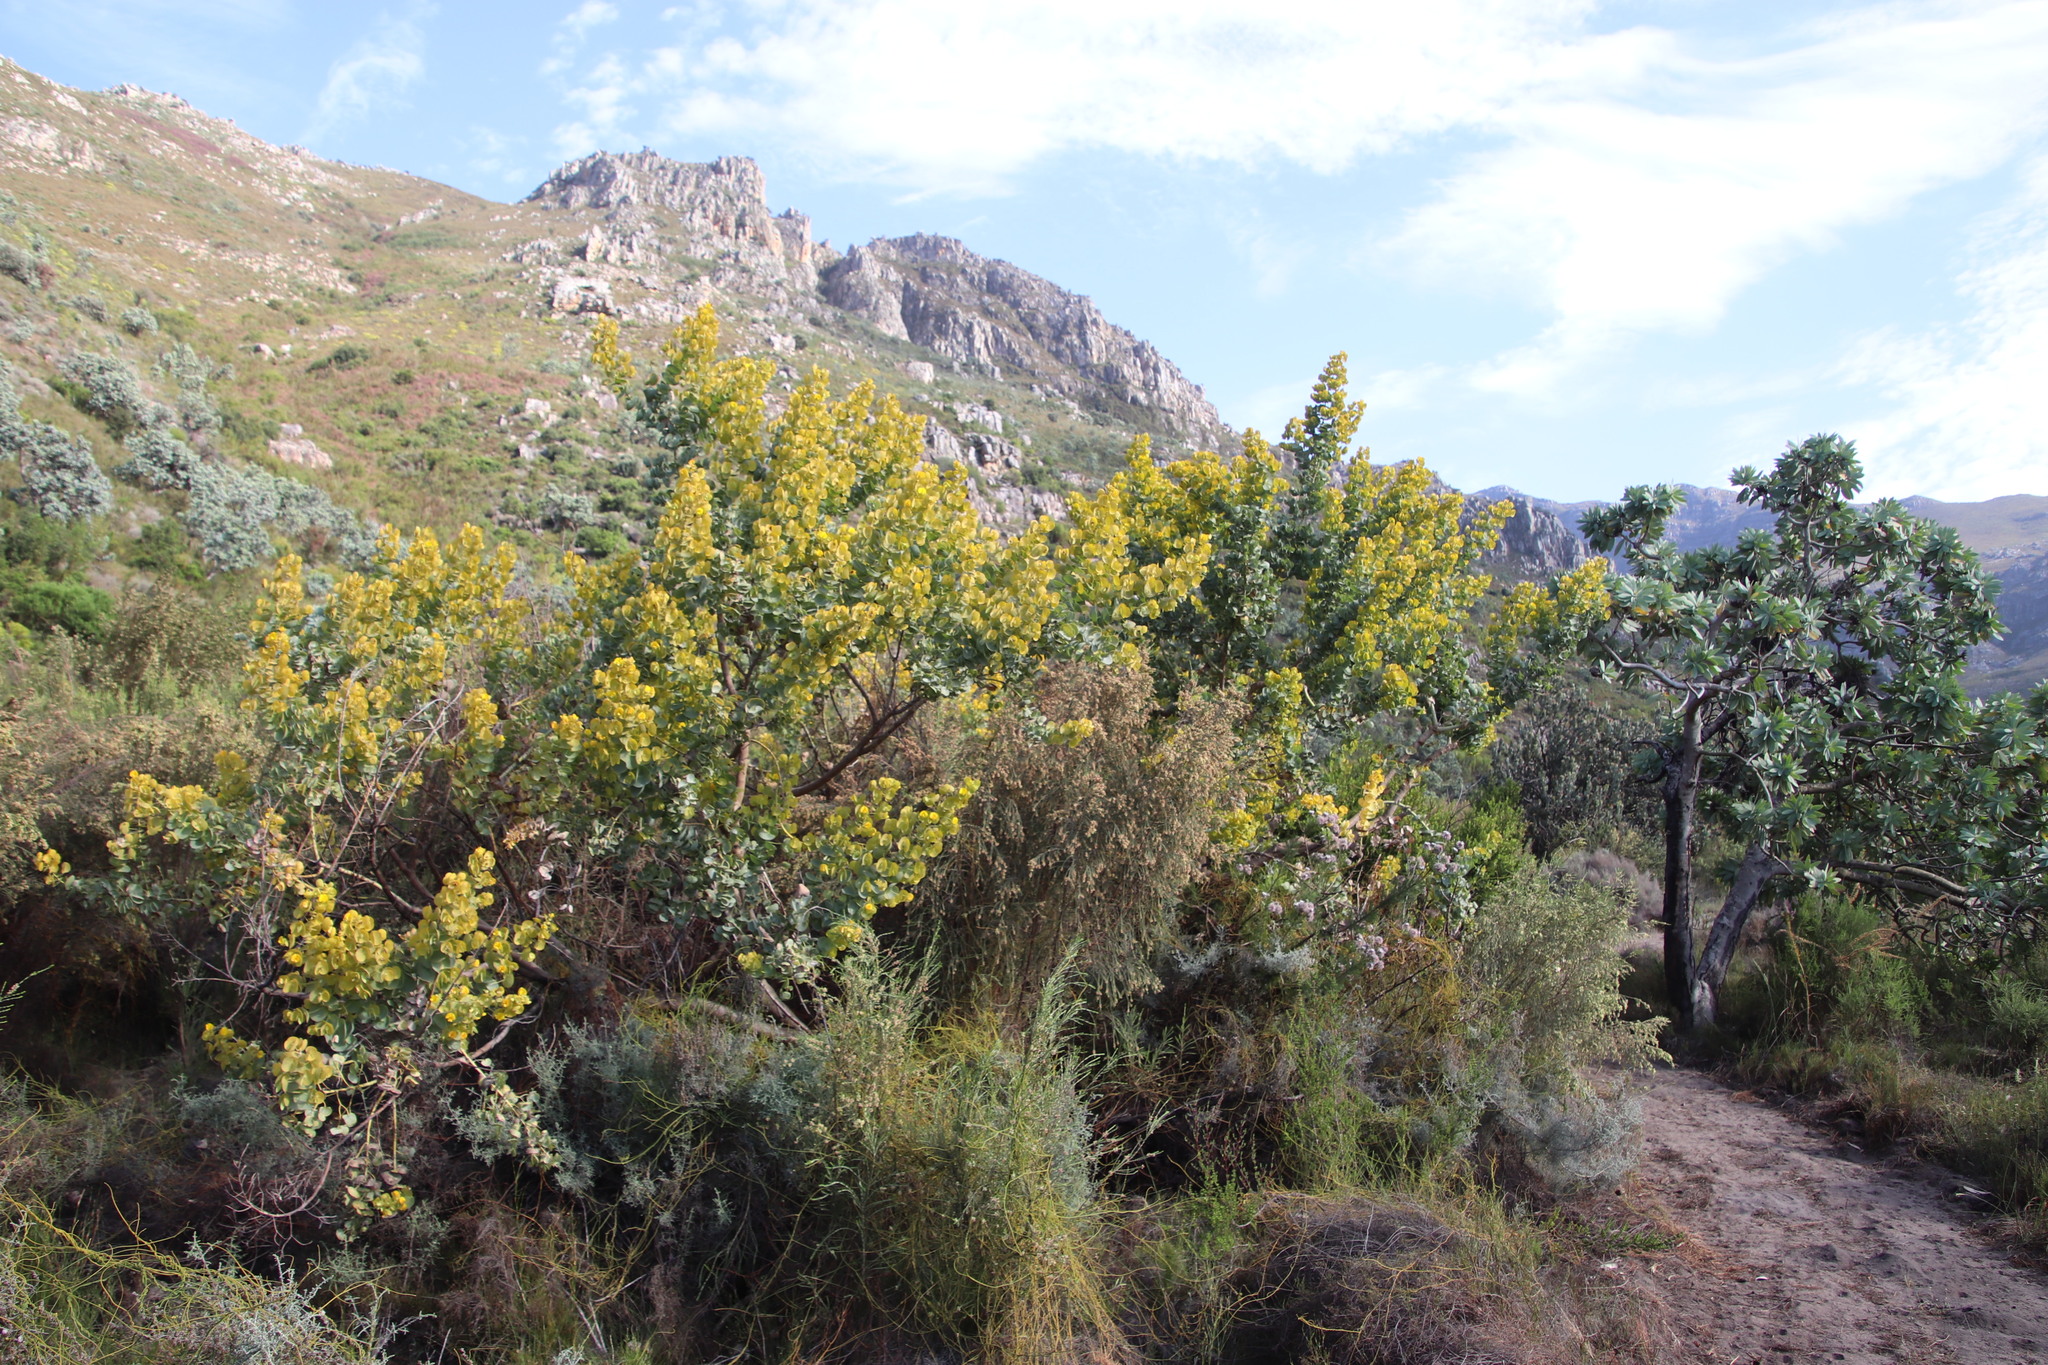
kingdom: Plantae
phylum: Tracheophyta
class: Magnoliopsida
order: Fabales
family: Fabaceae
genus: Rafnia
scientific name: Rafnia amplexicaulis
